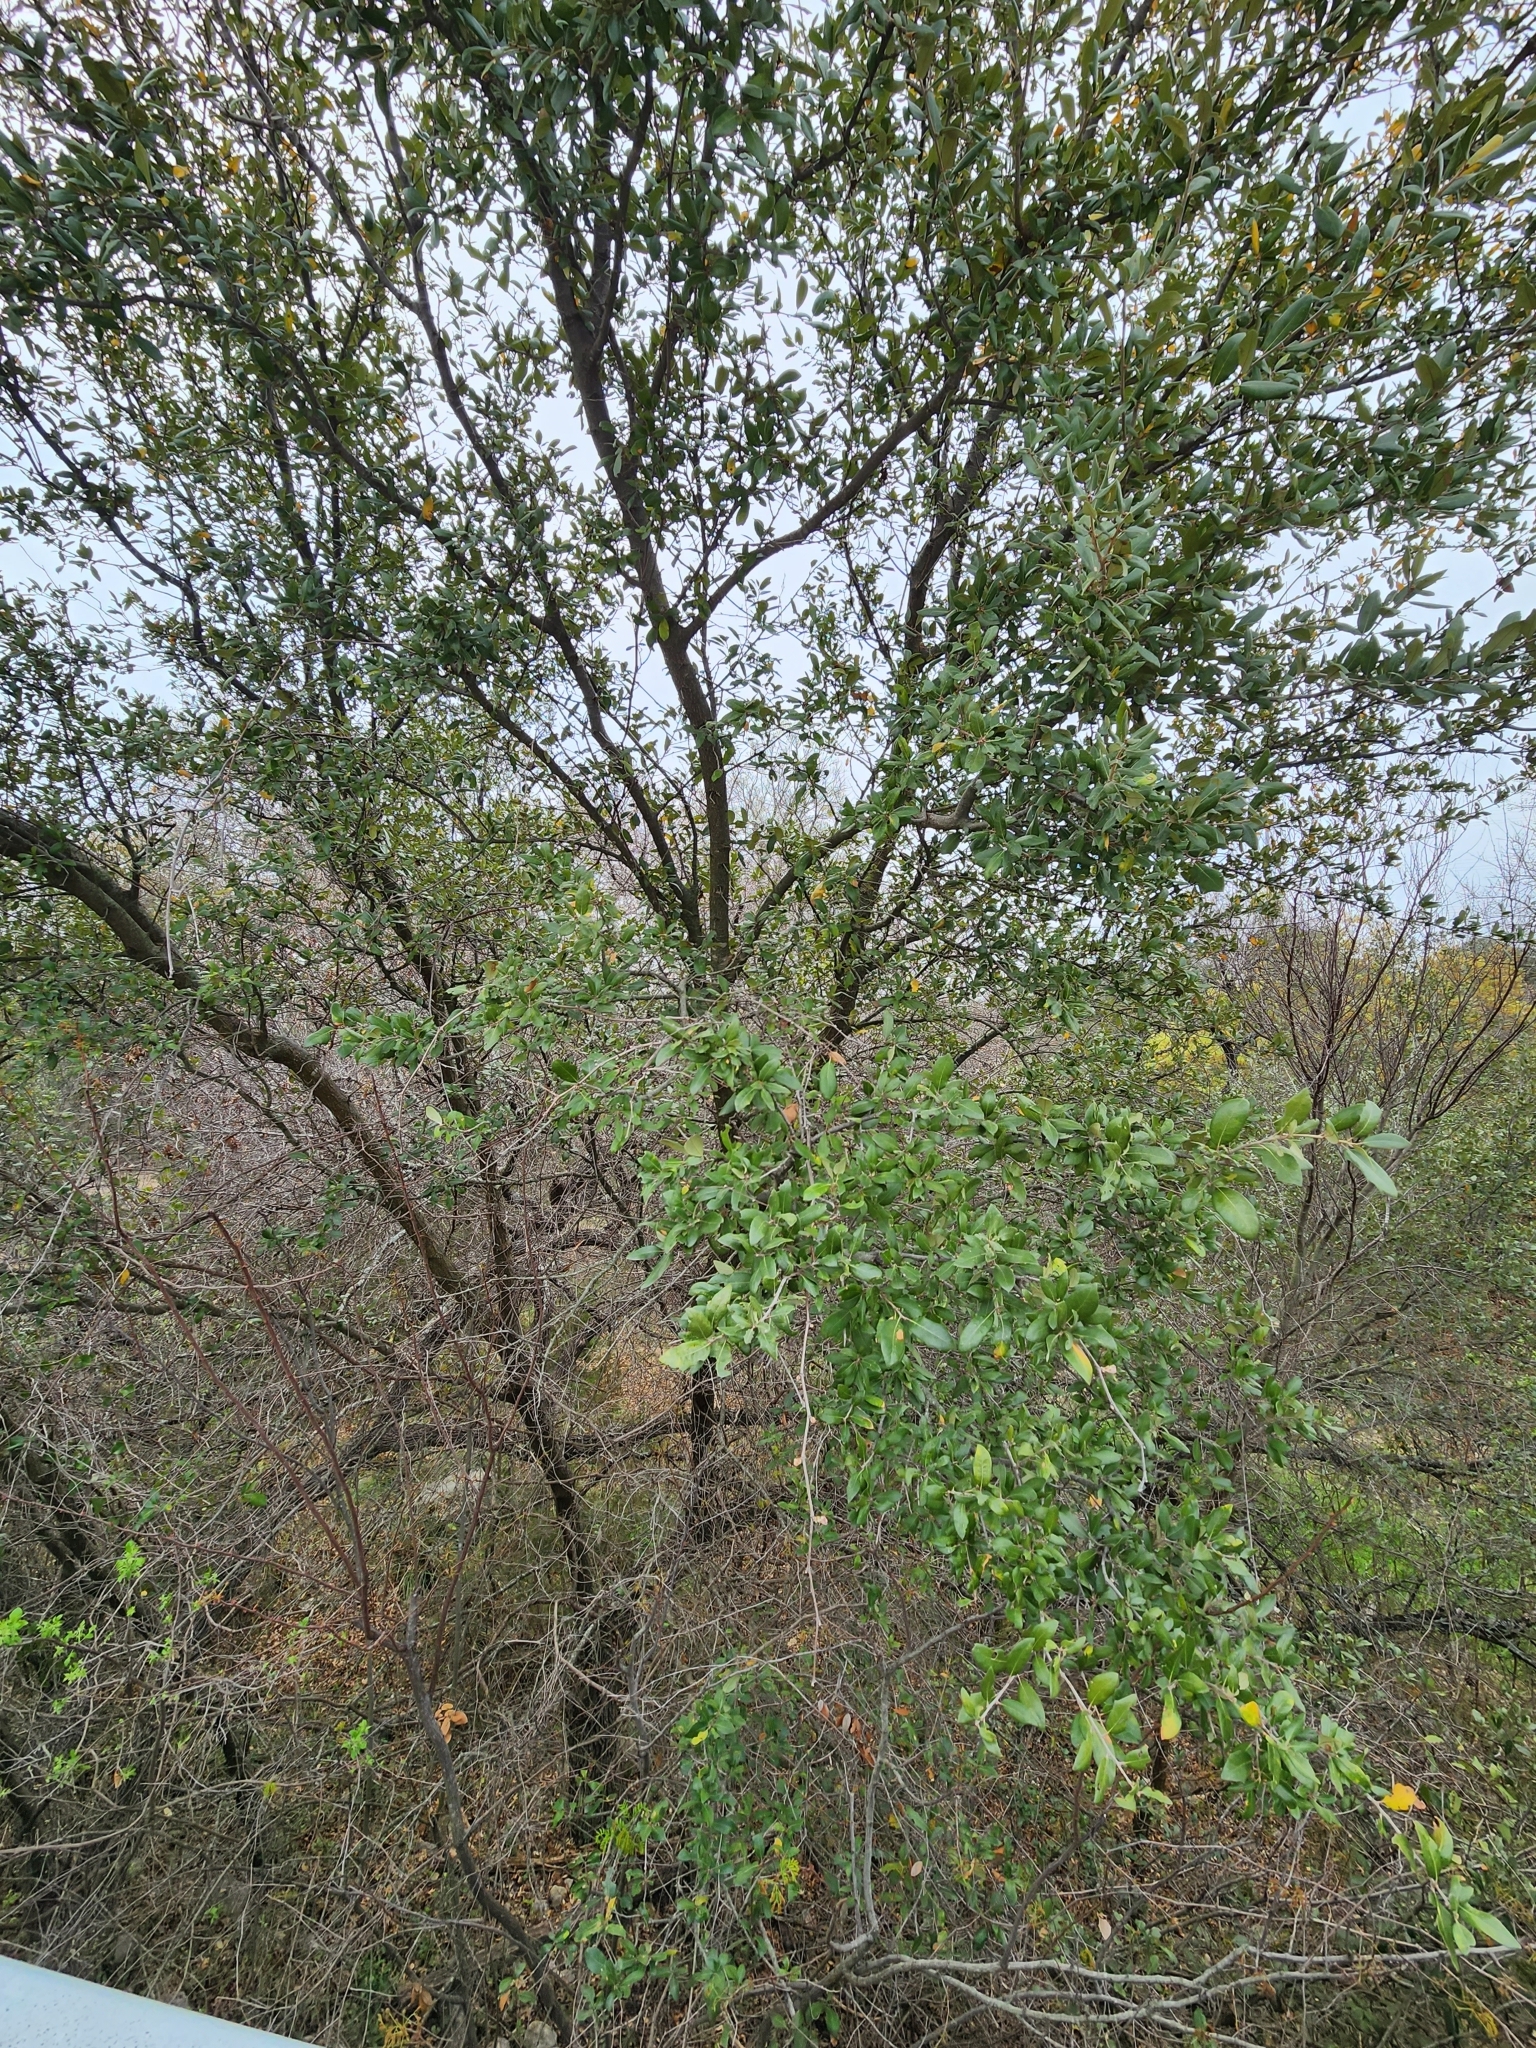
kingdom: Plantae
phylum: Tracheophyta
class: Magnoliopsida
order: Fagales
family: Fagaceae
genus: Quercus
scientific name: Quercus fusiformis
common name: Texas live oak
